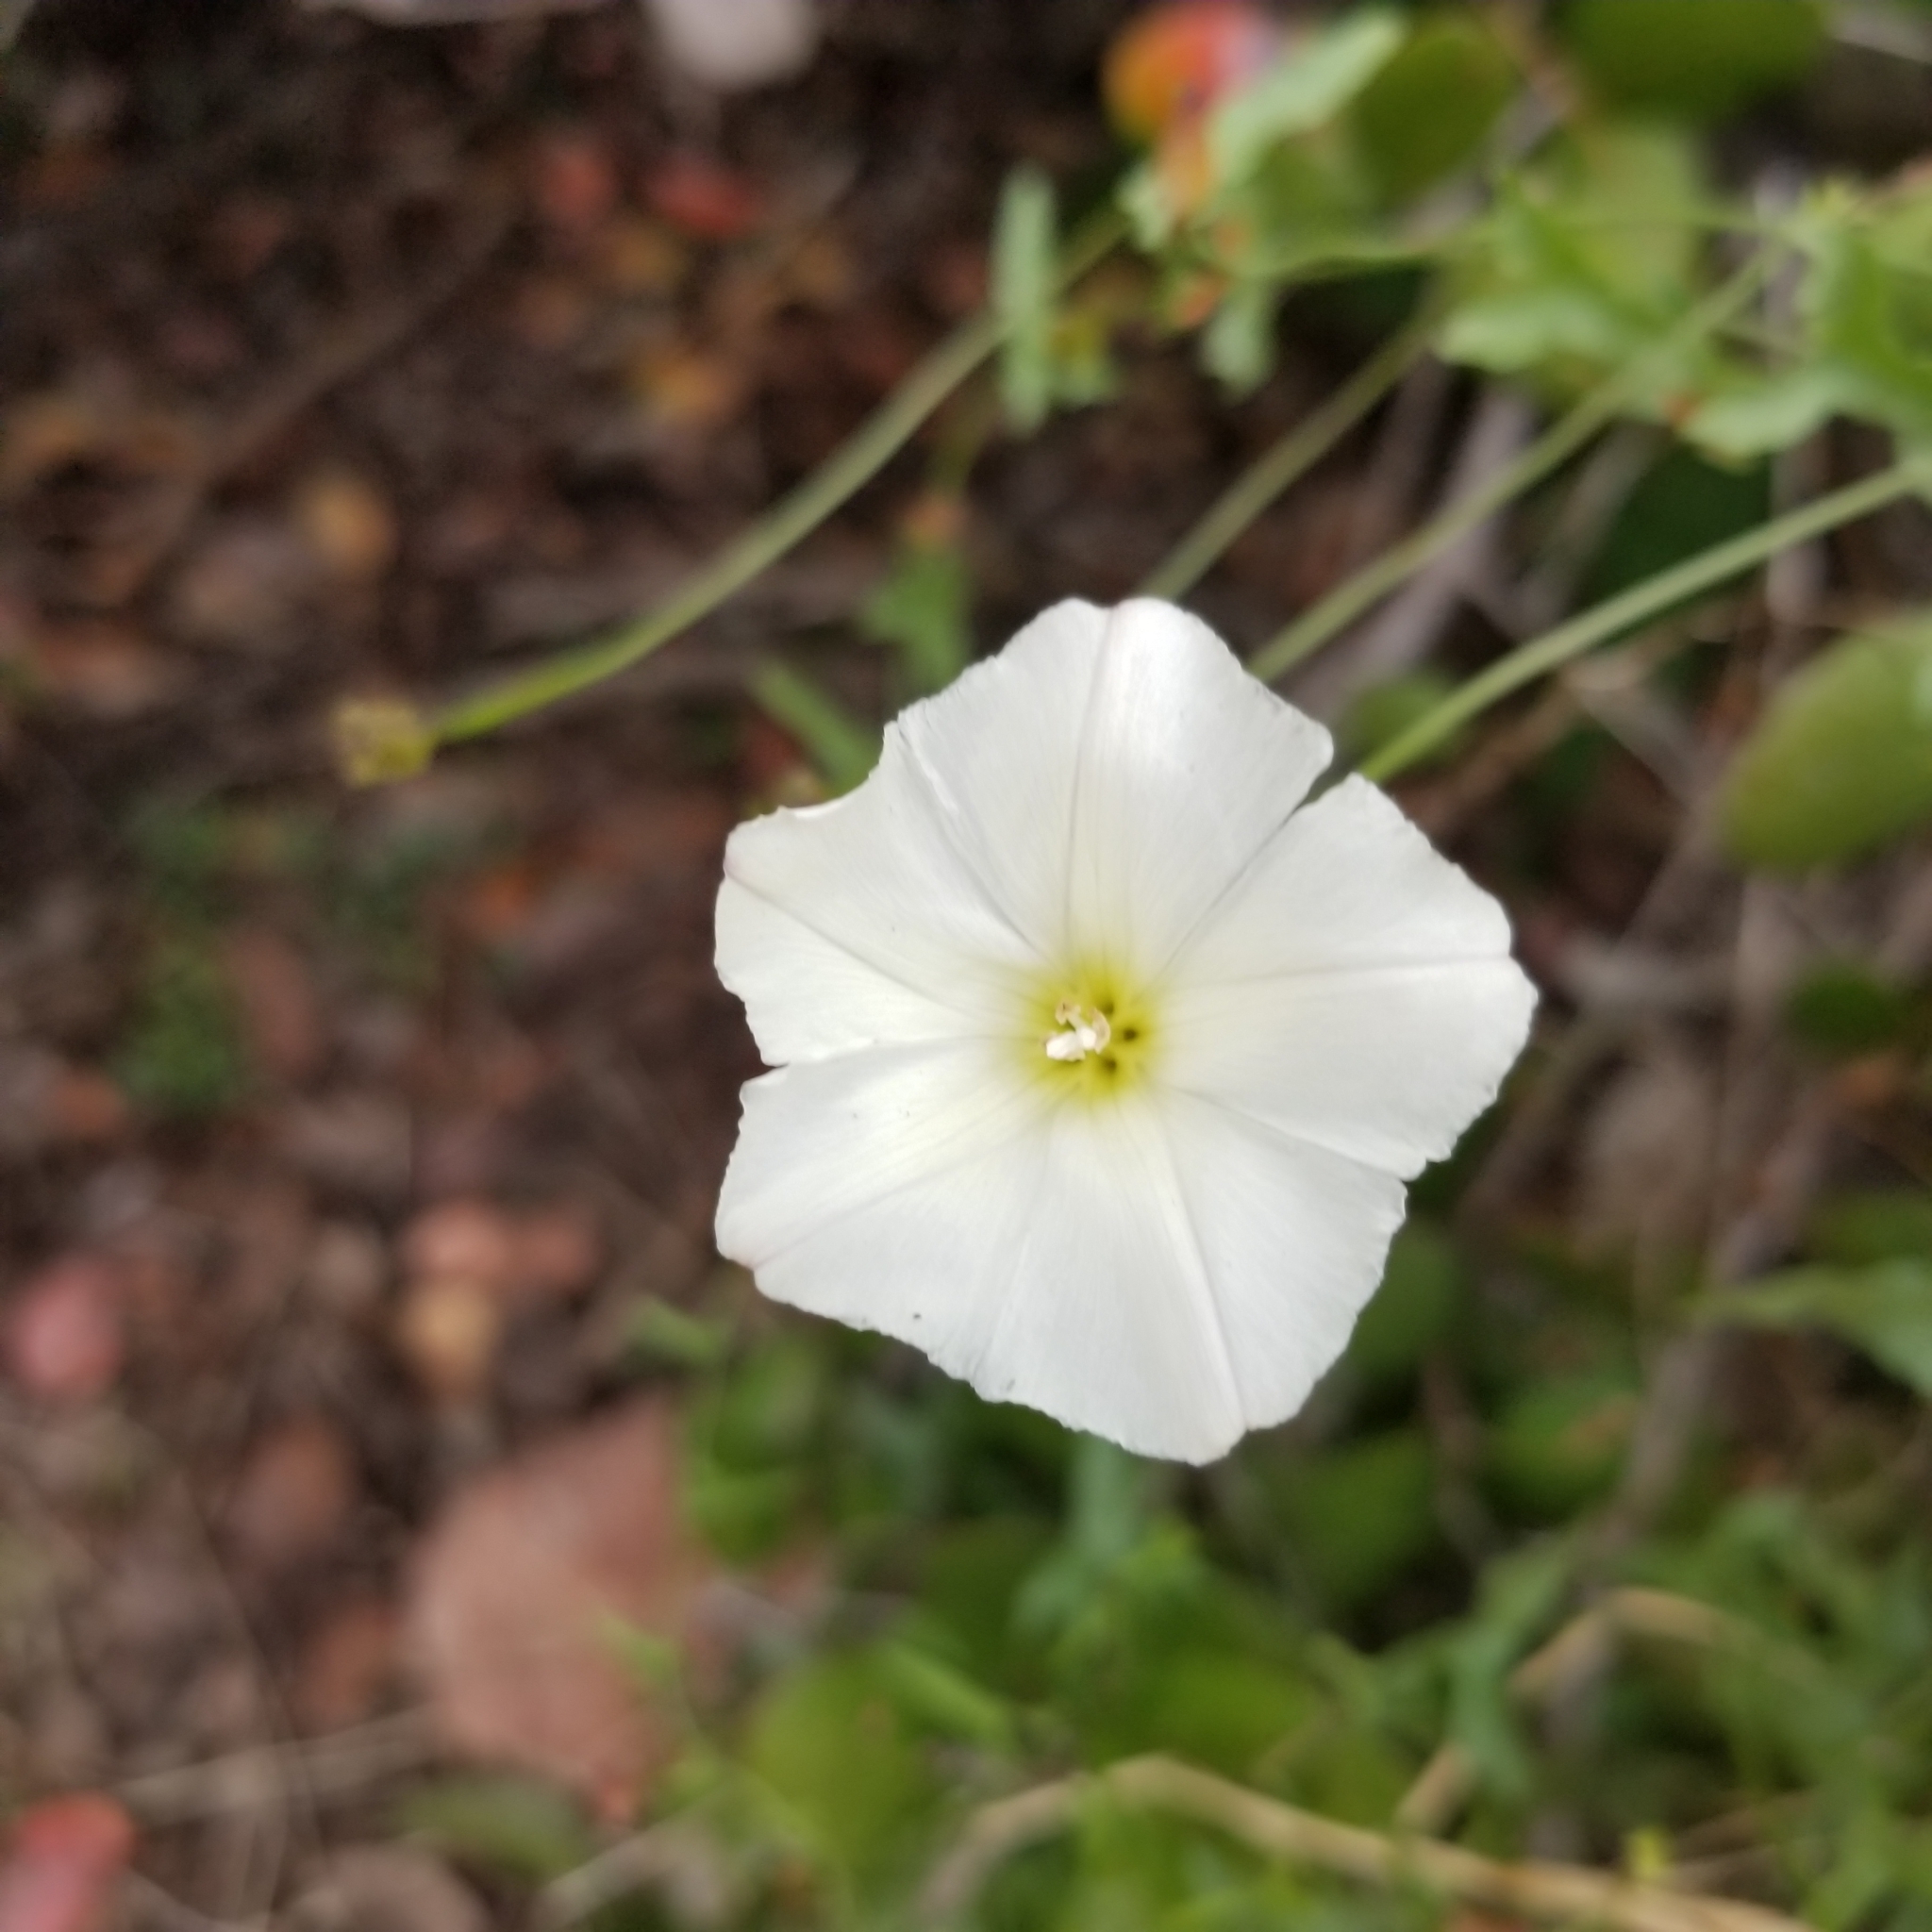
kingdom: Plantae
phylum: Tracheophyta
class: Magnoliopsida
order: Solanales
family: Convolvulaceae
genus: Calystegia
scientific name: Calystegia macrostegia
